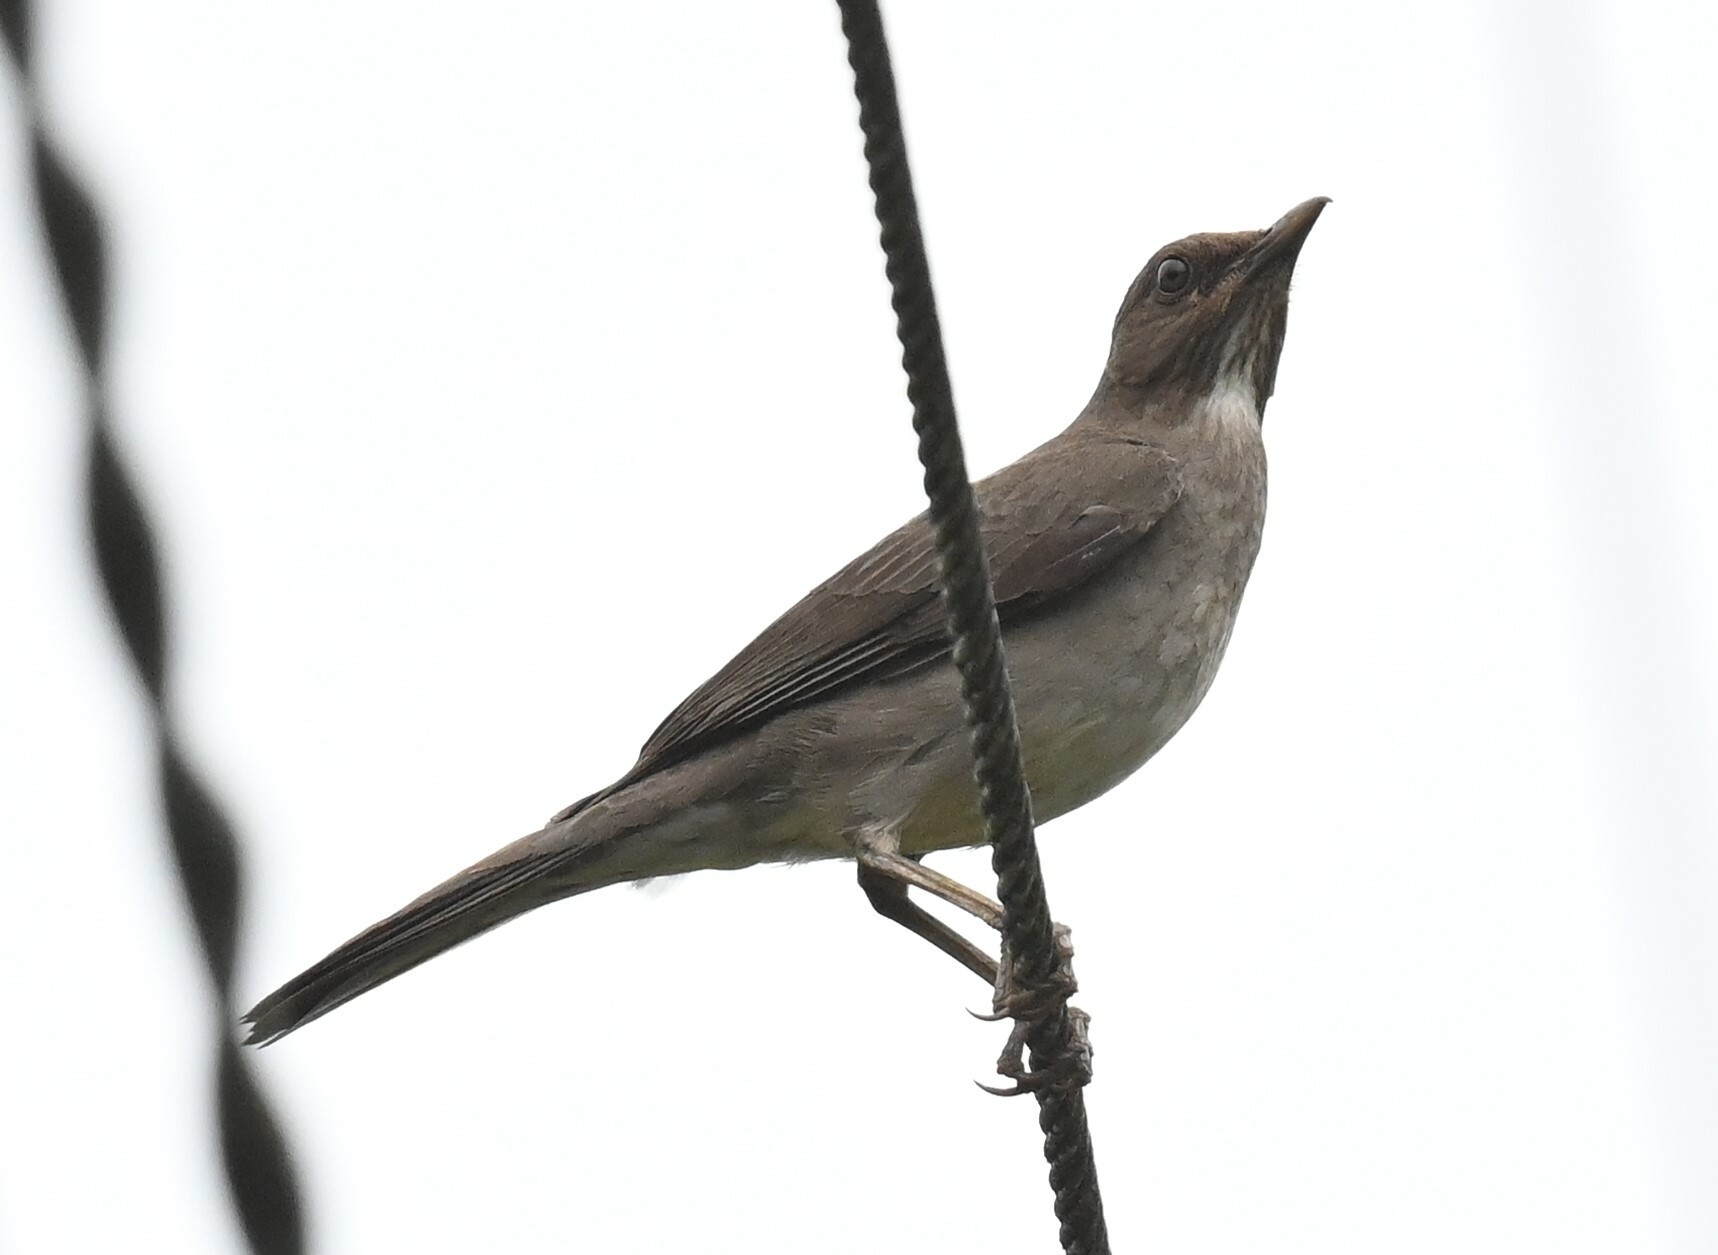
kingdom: Animalia
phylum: Chordata
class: Aves
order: Passeriformes
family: Turdidae
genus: Turdus
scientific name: Turdus ignobilis
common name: Black-billed thrush
